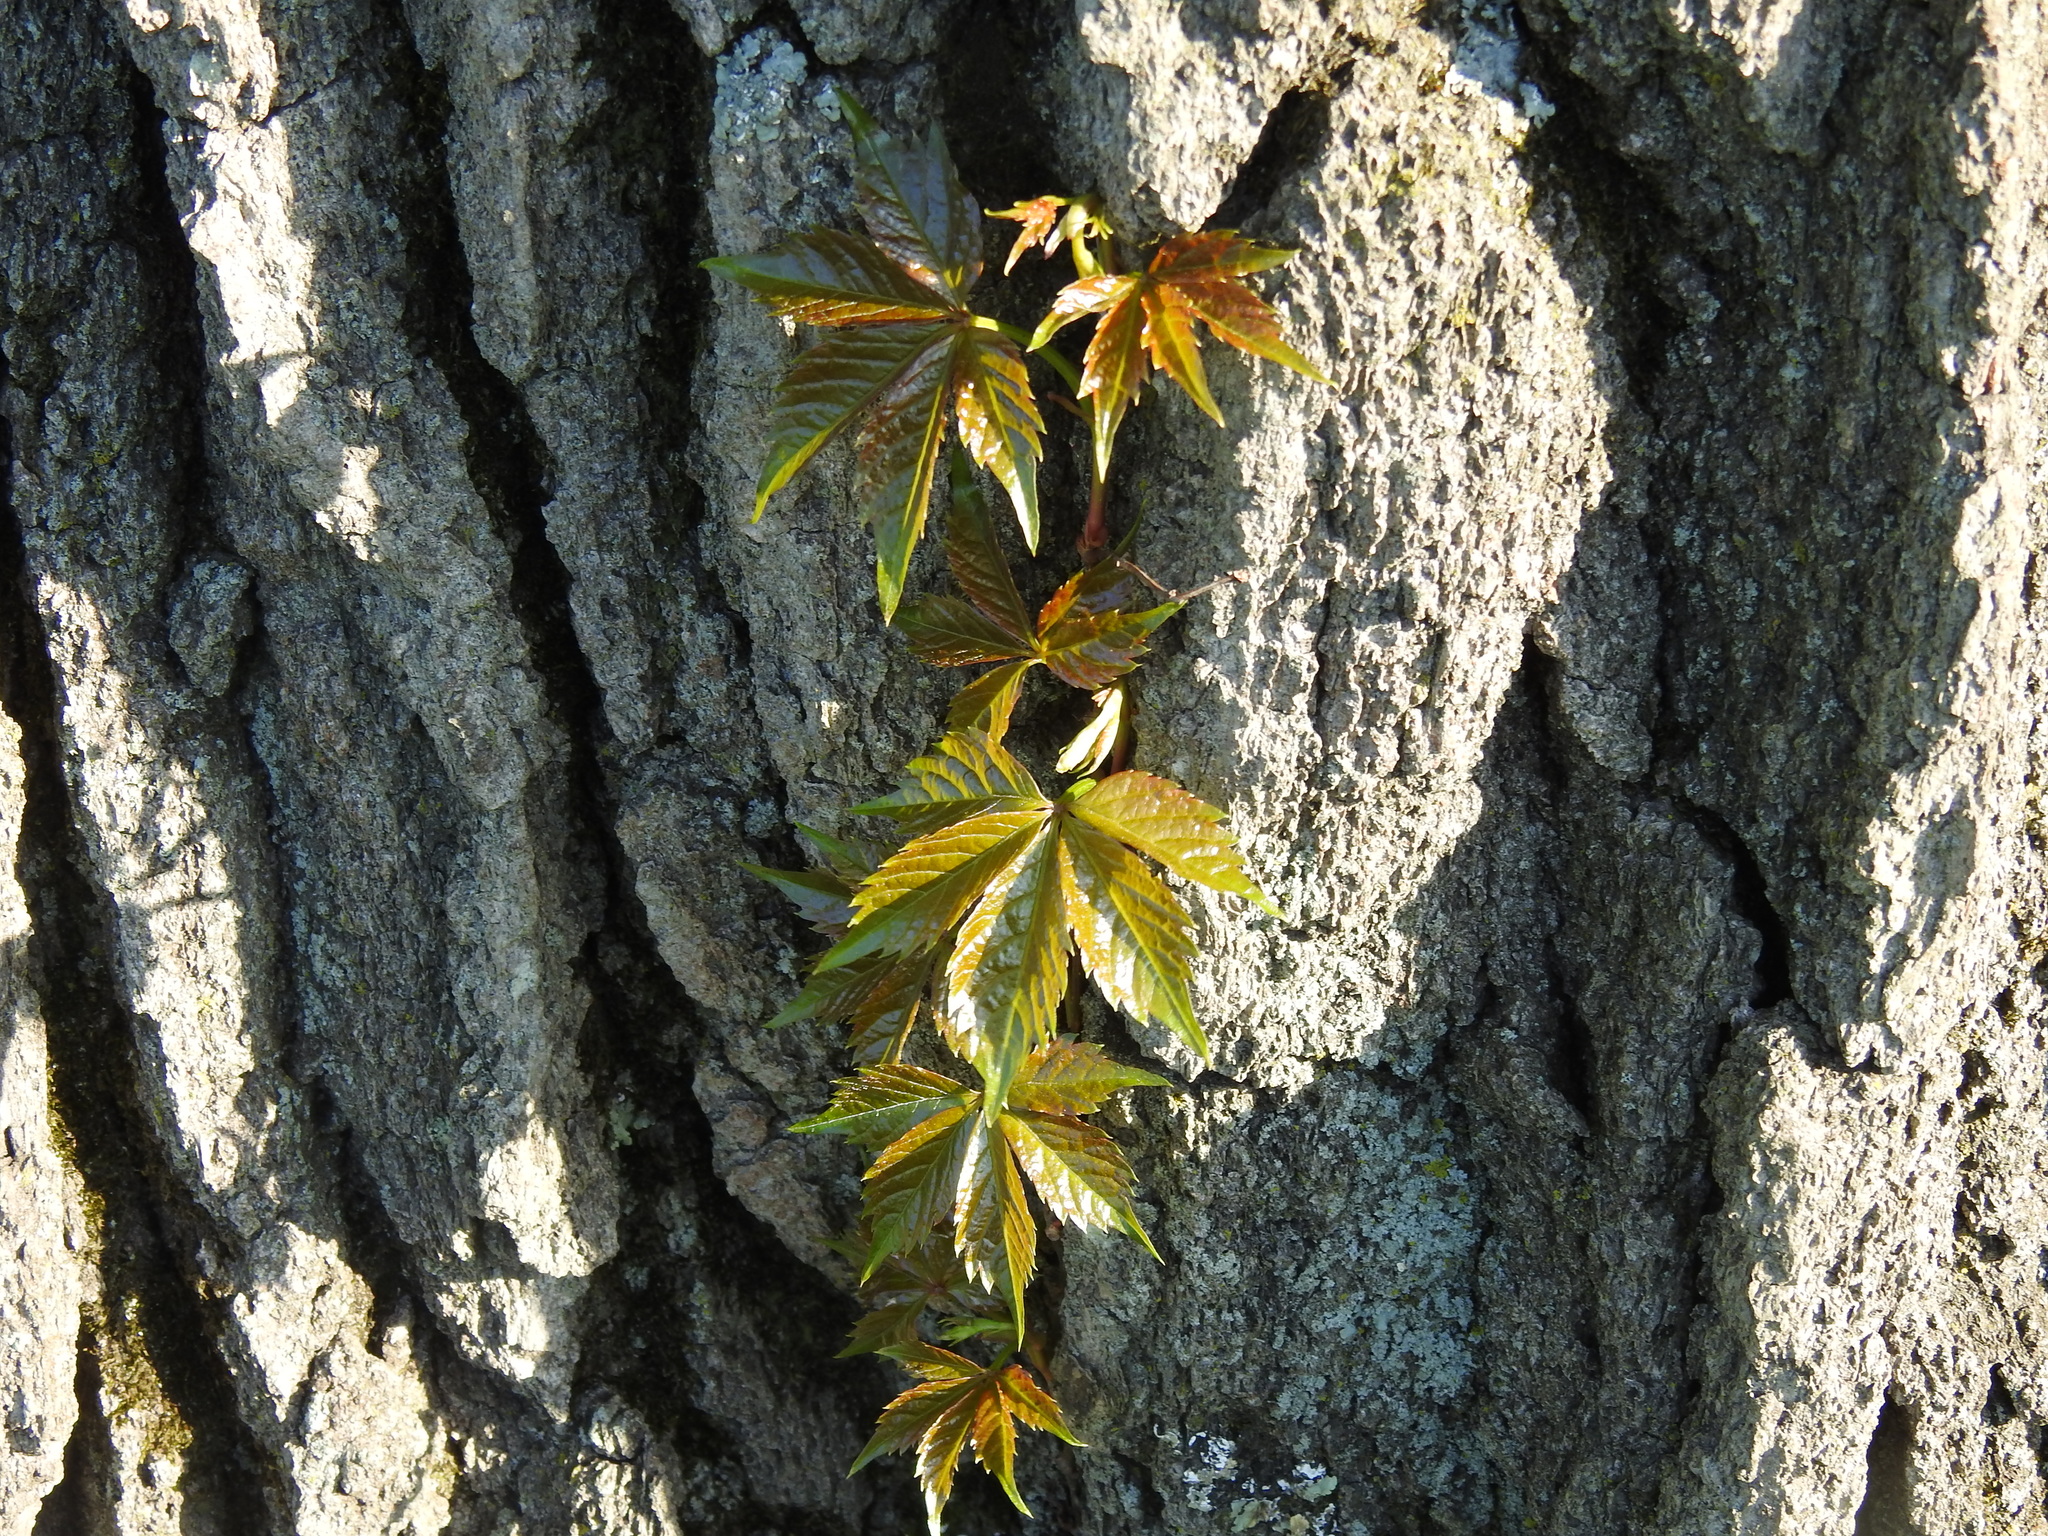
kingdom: Plantae
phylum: Tracheophyta
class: Magnoliopsida
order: Vitales
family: Vitaceae
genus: Parthenocissus
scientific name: Parthenocissus quinquefolia
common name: Virginia-creeper
